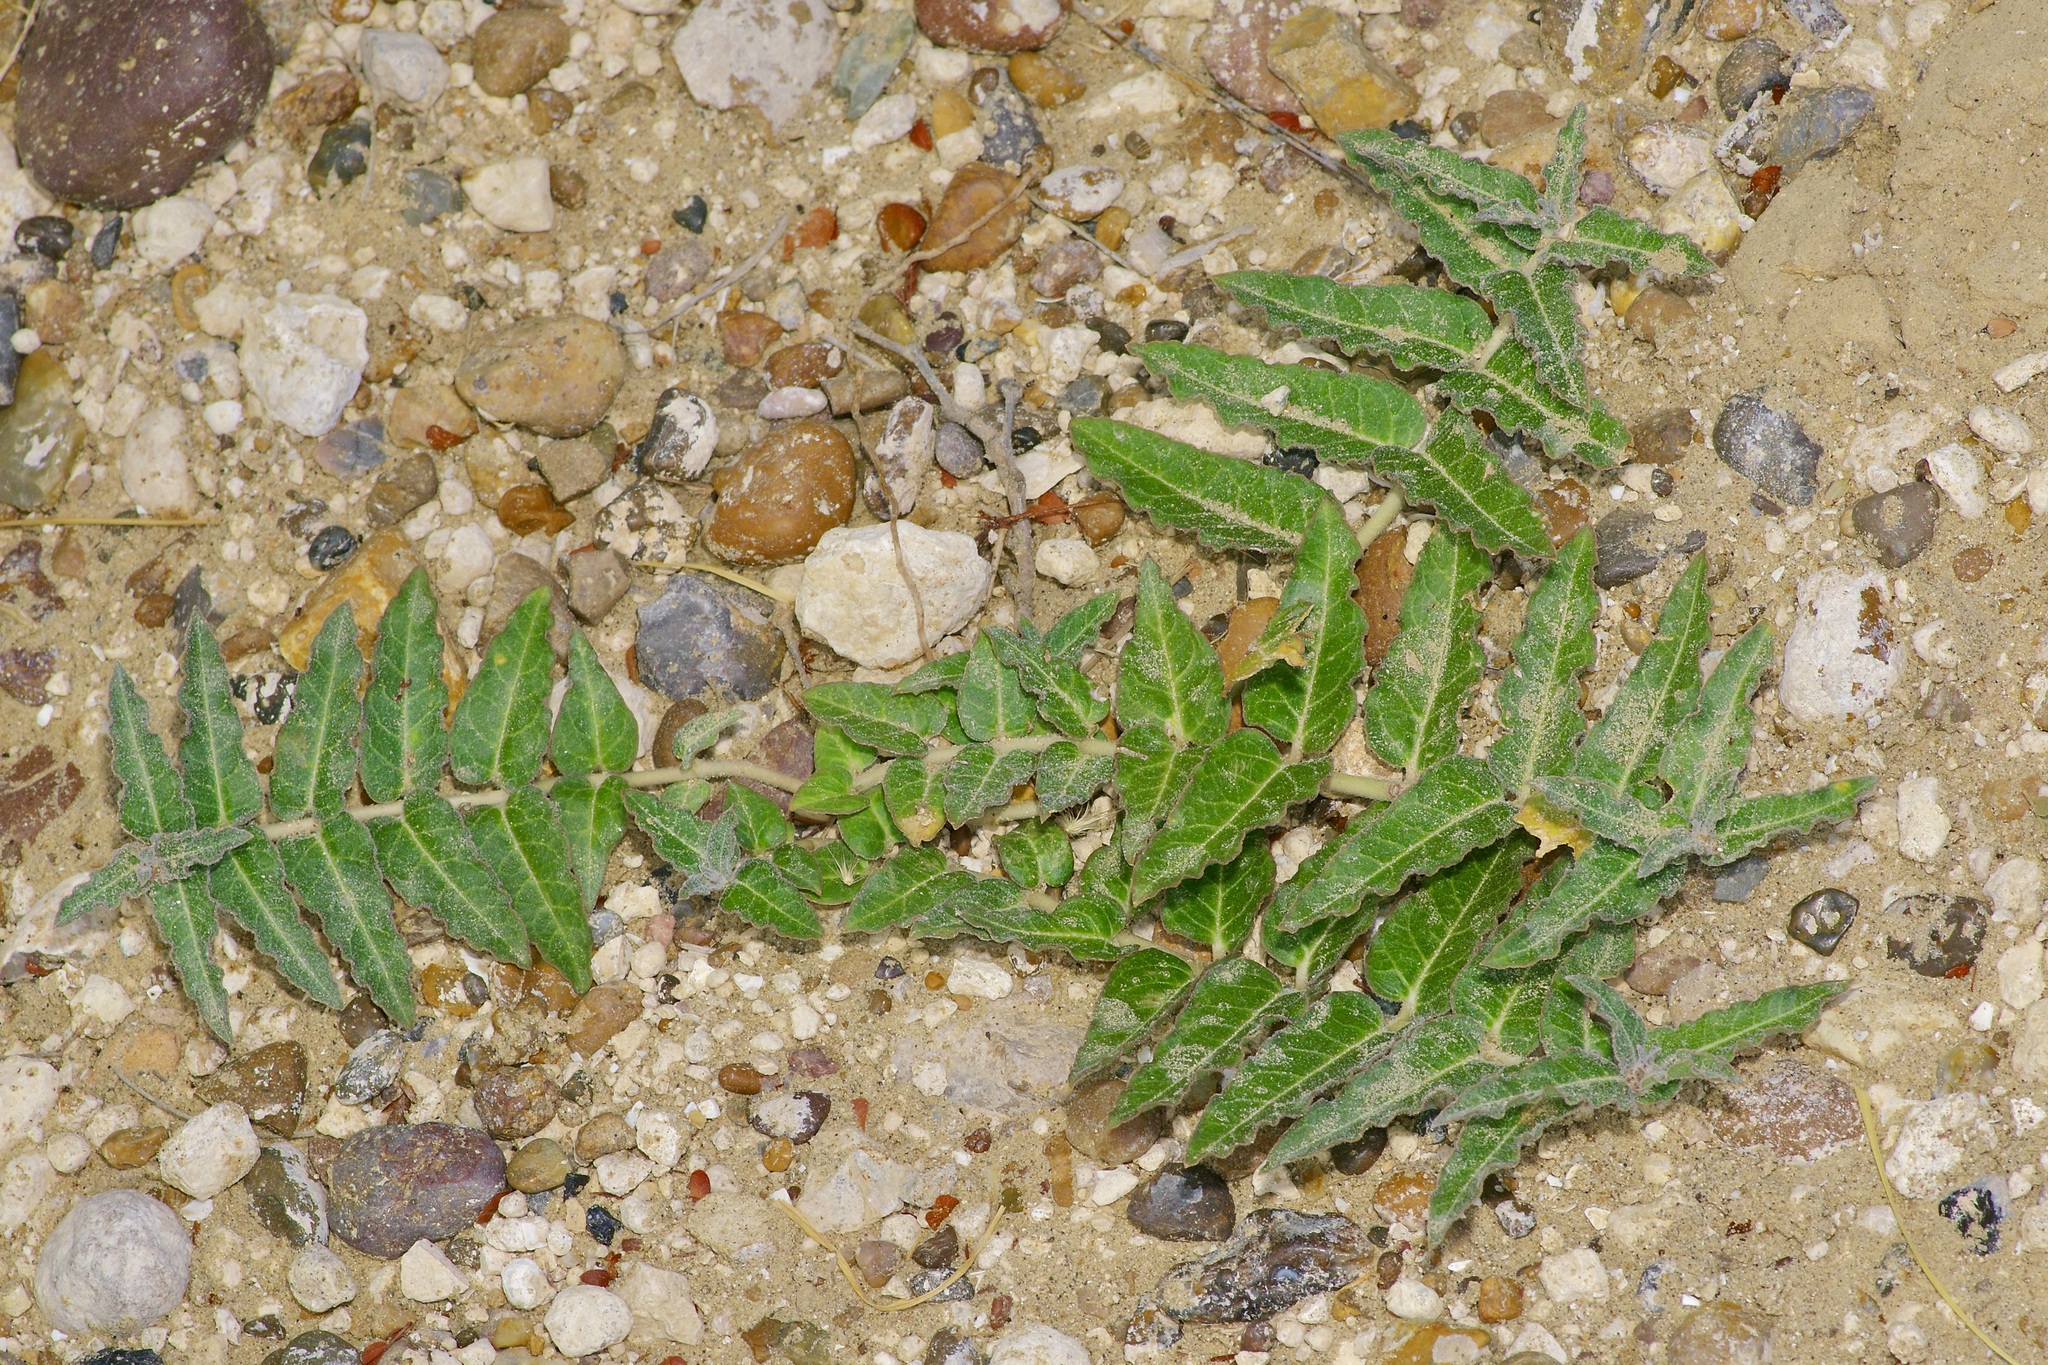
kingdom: Plantae
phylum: Tracheophyta
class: Magnoliopsida
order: Gentianales
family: Apocynaceae
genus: Asclepias
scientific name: Asclepias prostrata
